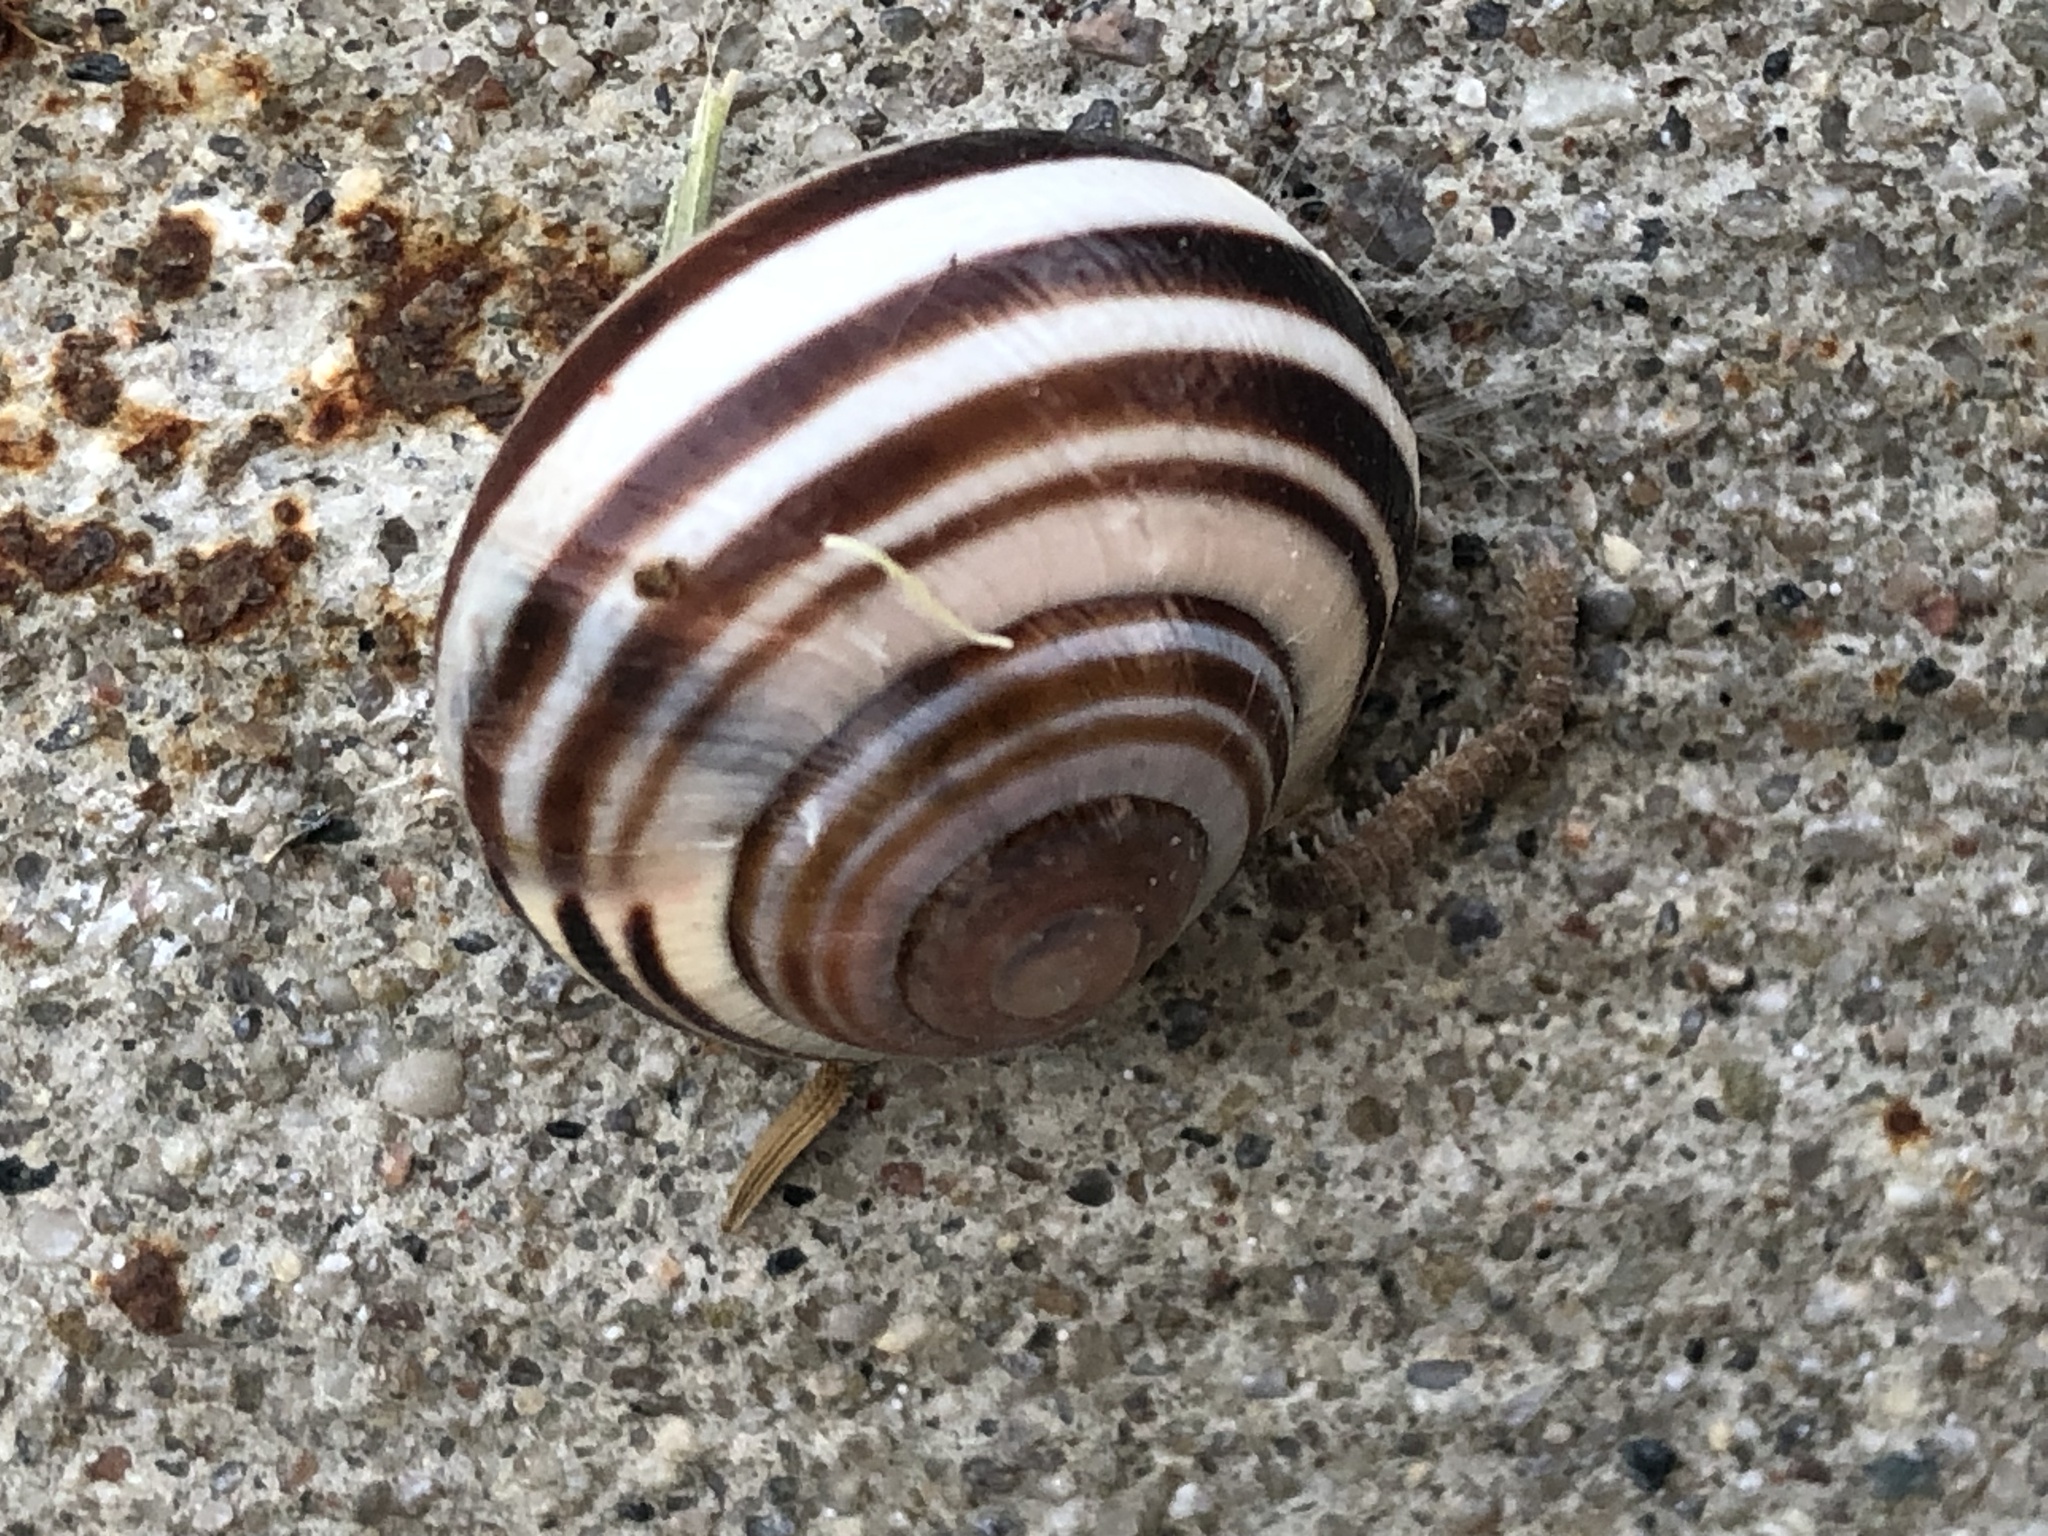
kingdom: Animalia
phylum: Mollusca
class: Gastropoda
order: Stylommatophora
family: Helicidae
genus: Cepaea
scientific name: Cepaea nemoralis
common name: Grovesnail
